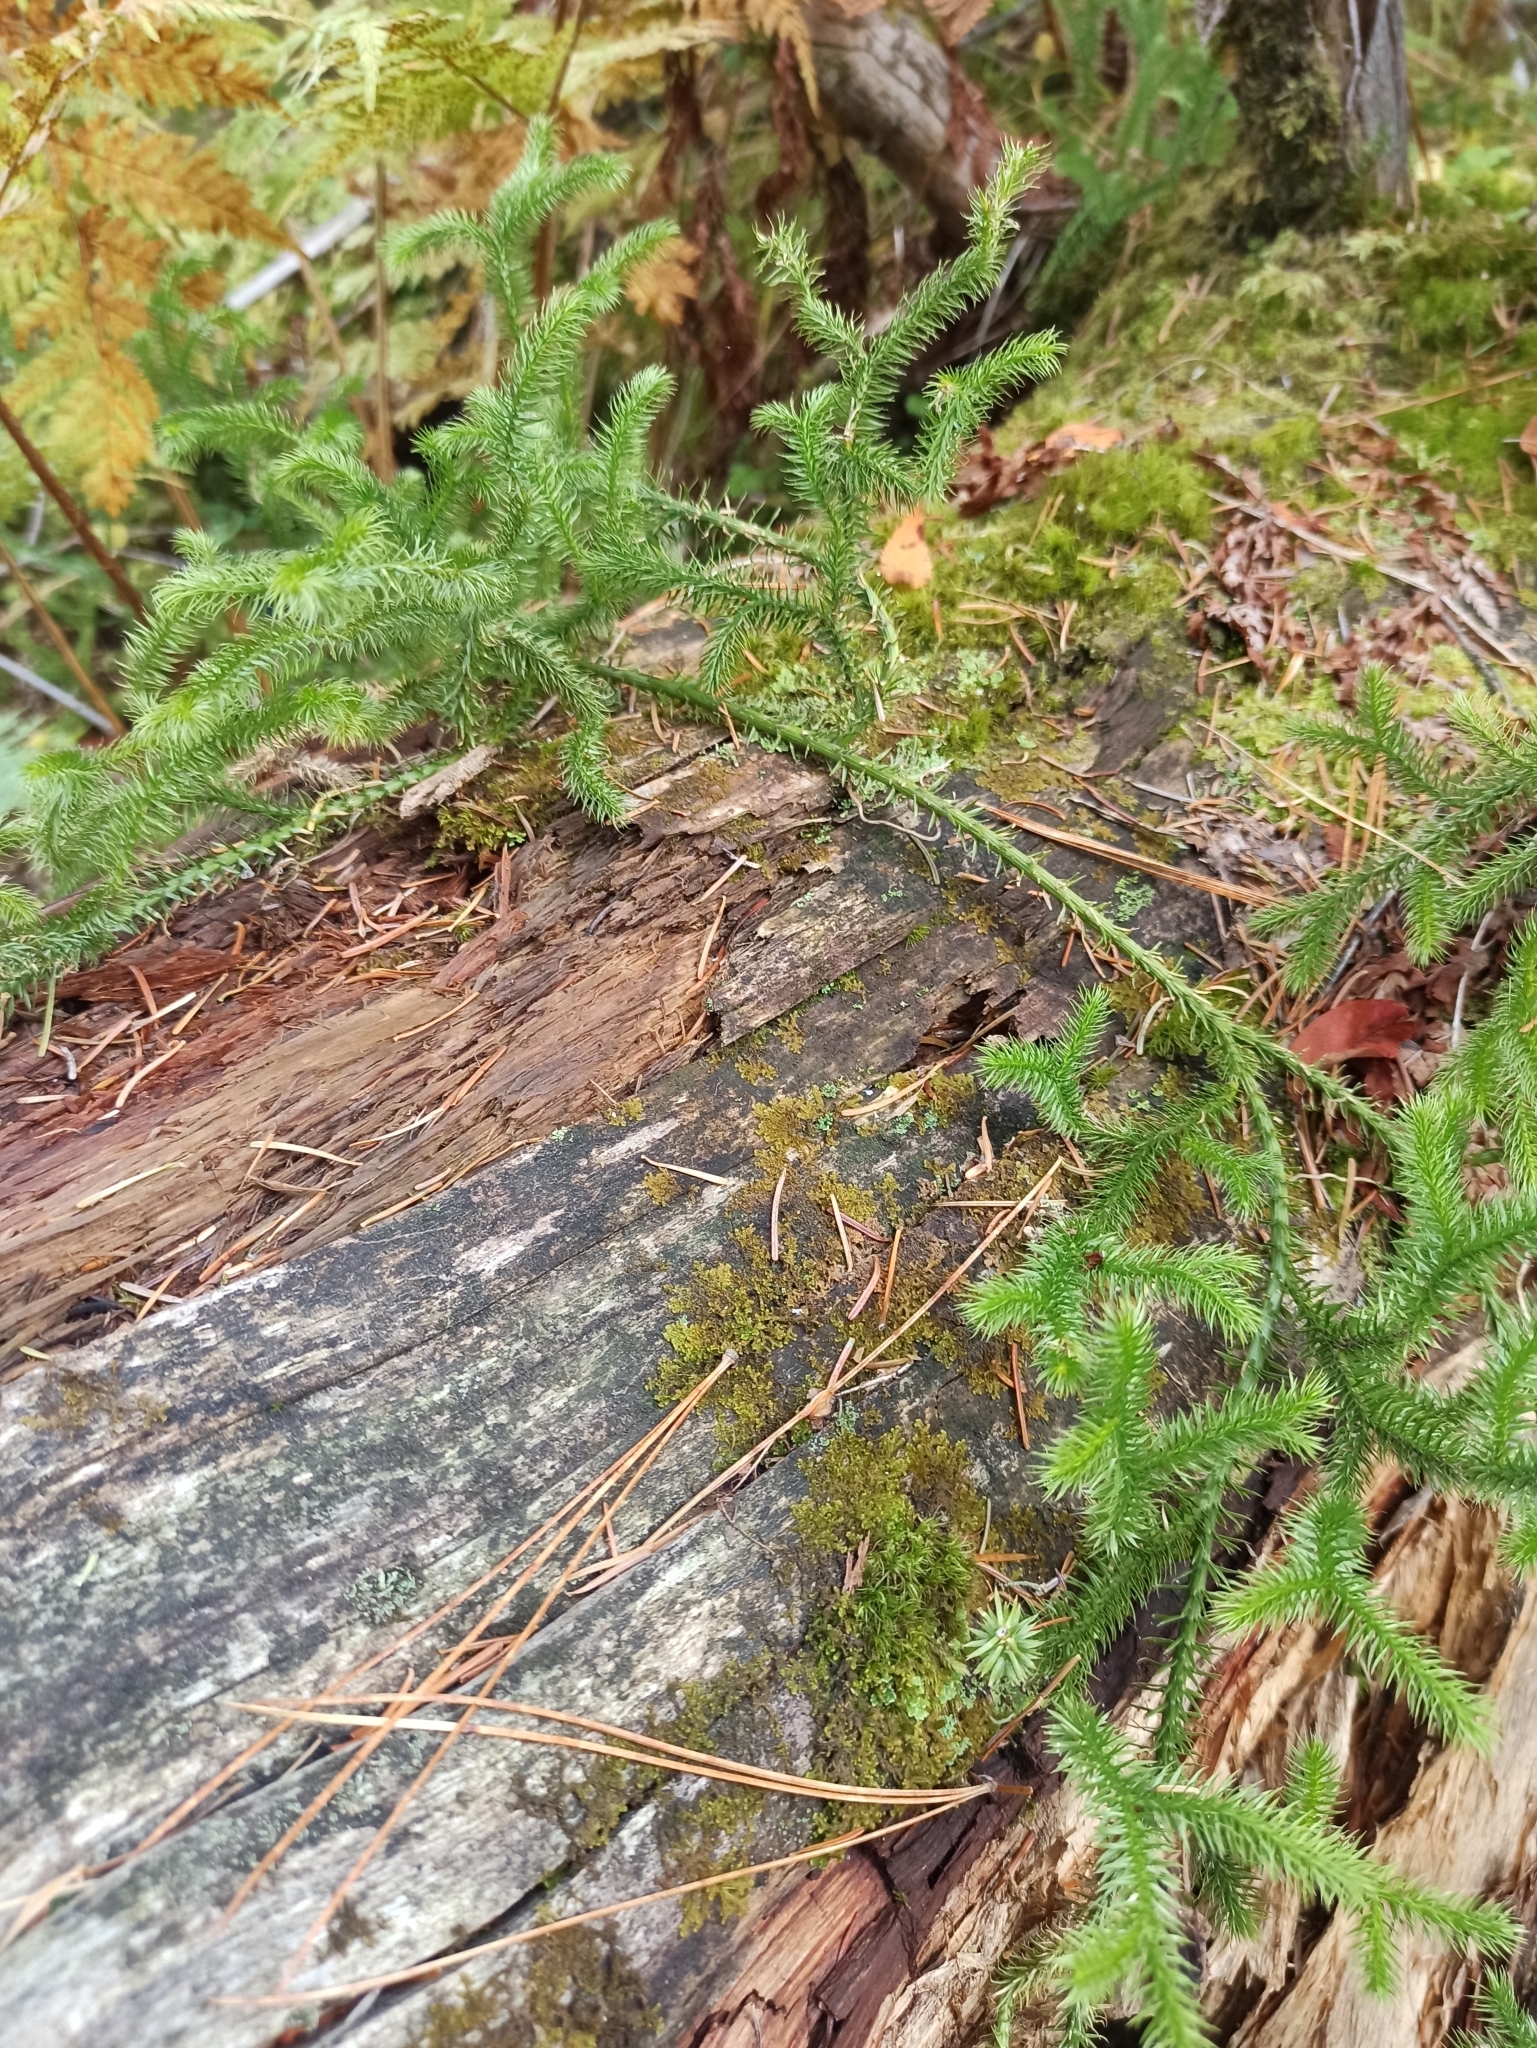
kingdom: Plantae
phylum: Tracheophyta
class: Lycopodiopsida
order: Lycopodiales
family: Lycopodiaceae
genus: Lycopodium
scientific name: Lycopodium clavatum
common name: Stag's-horn clubmoss
